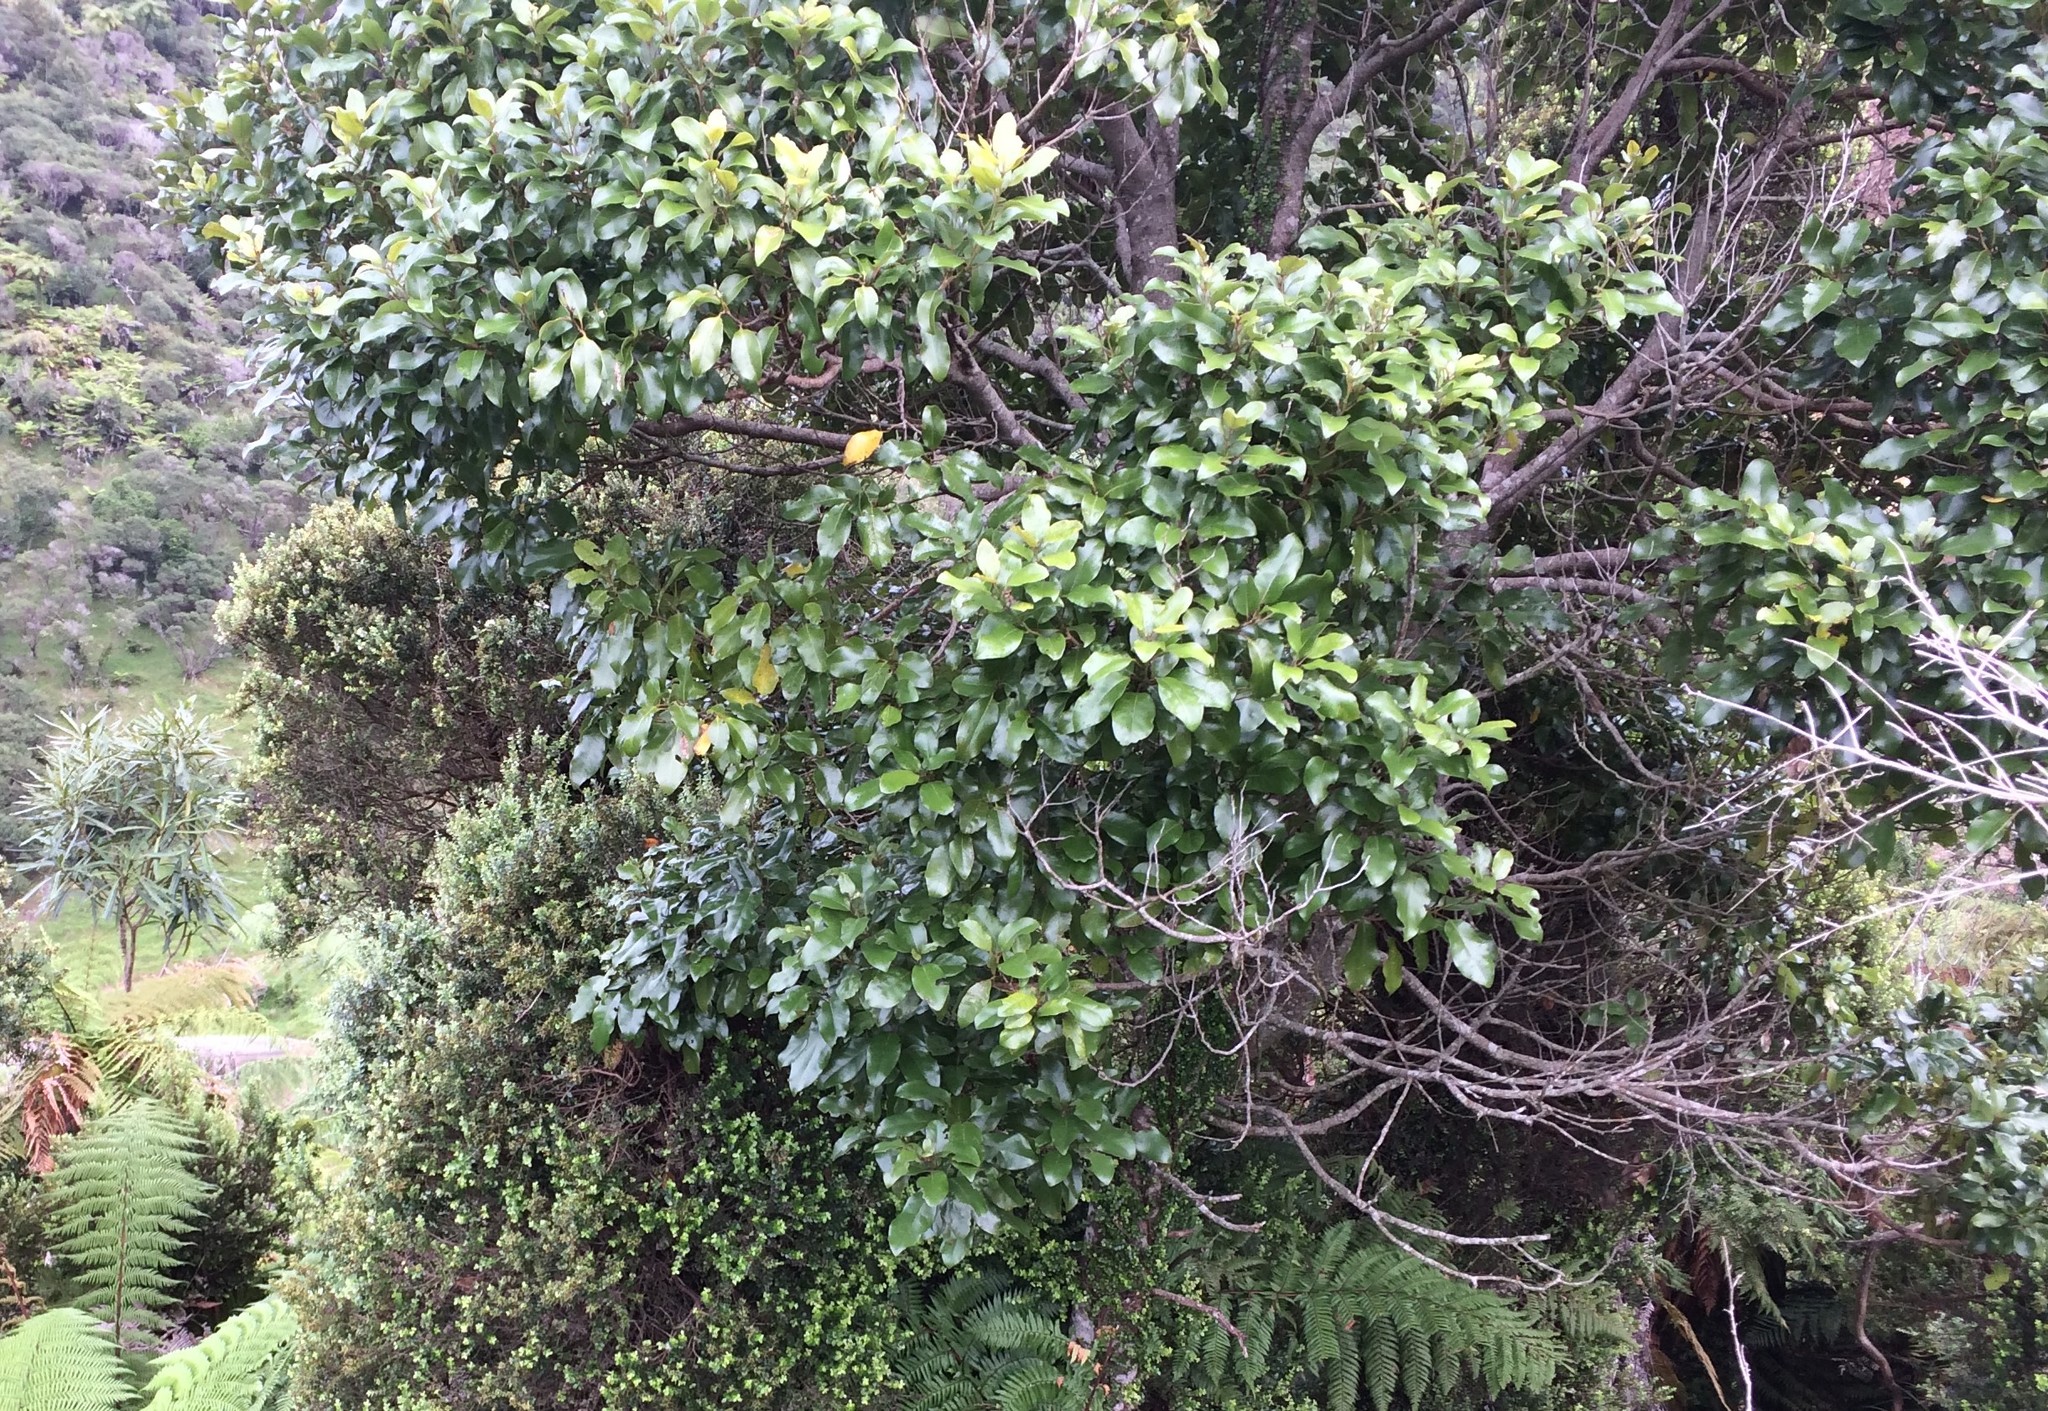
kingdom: Plantae
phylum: Tracheophyta
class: Magnoliopsida
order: Laurales
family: Lauraceae
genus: Litsea
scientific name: Litsea calicaris
